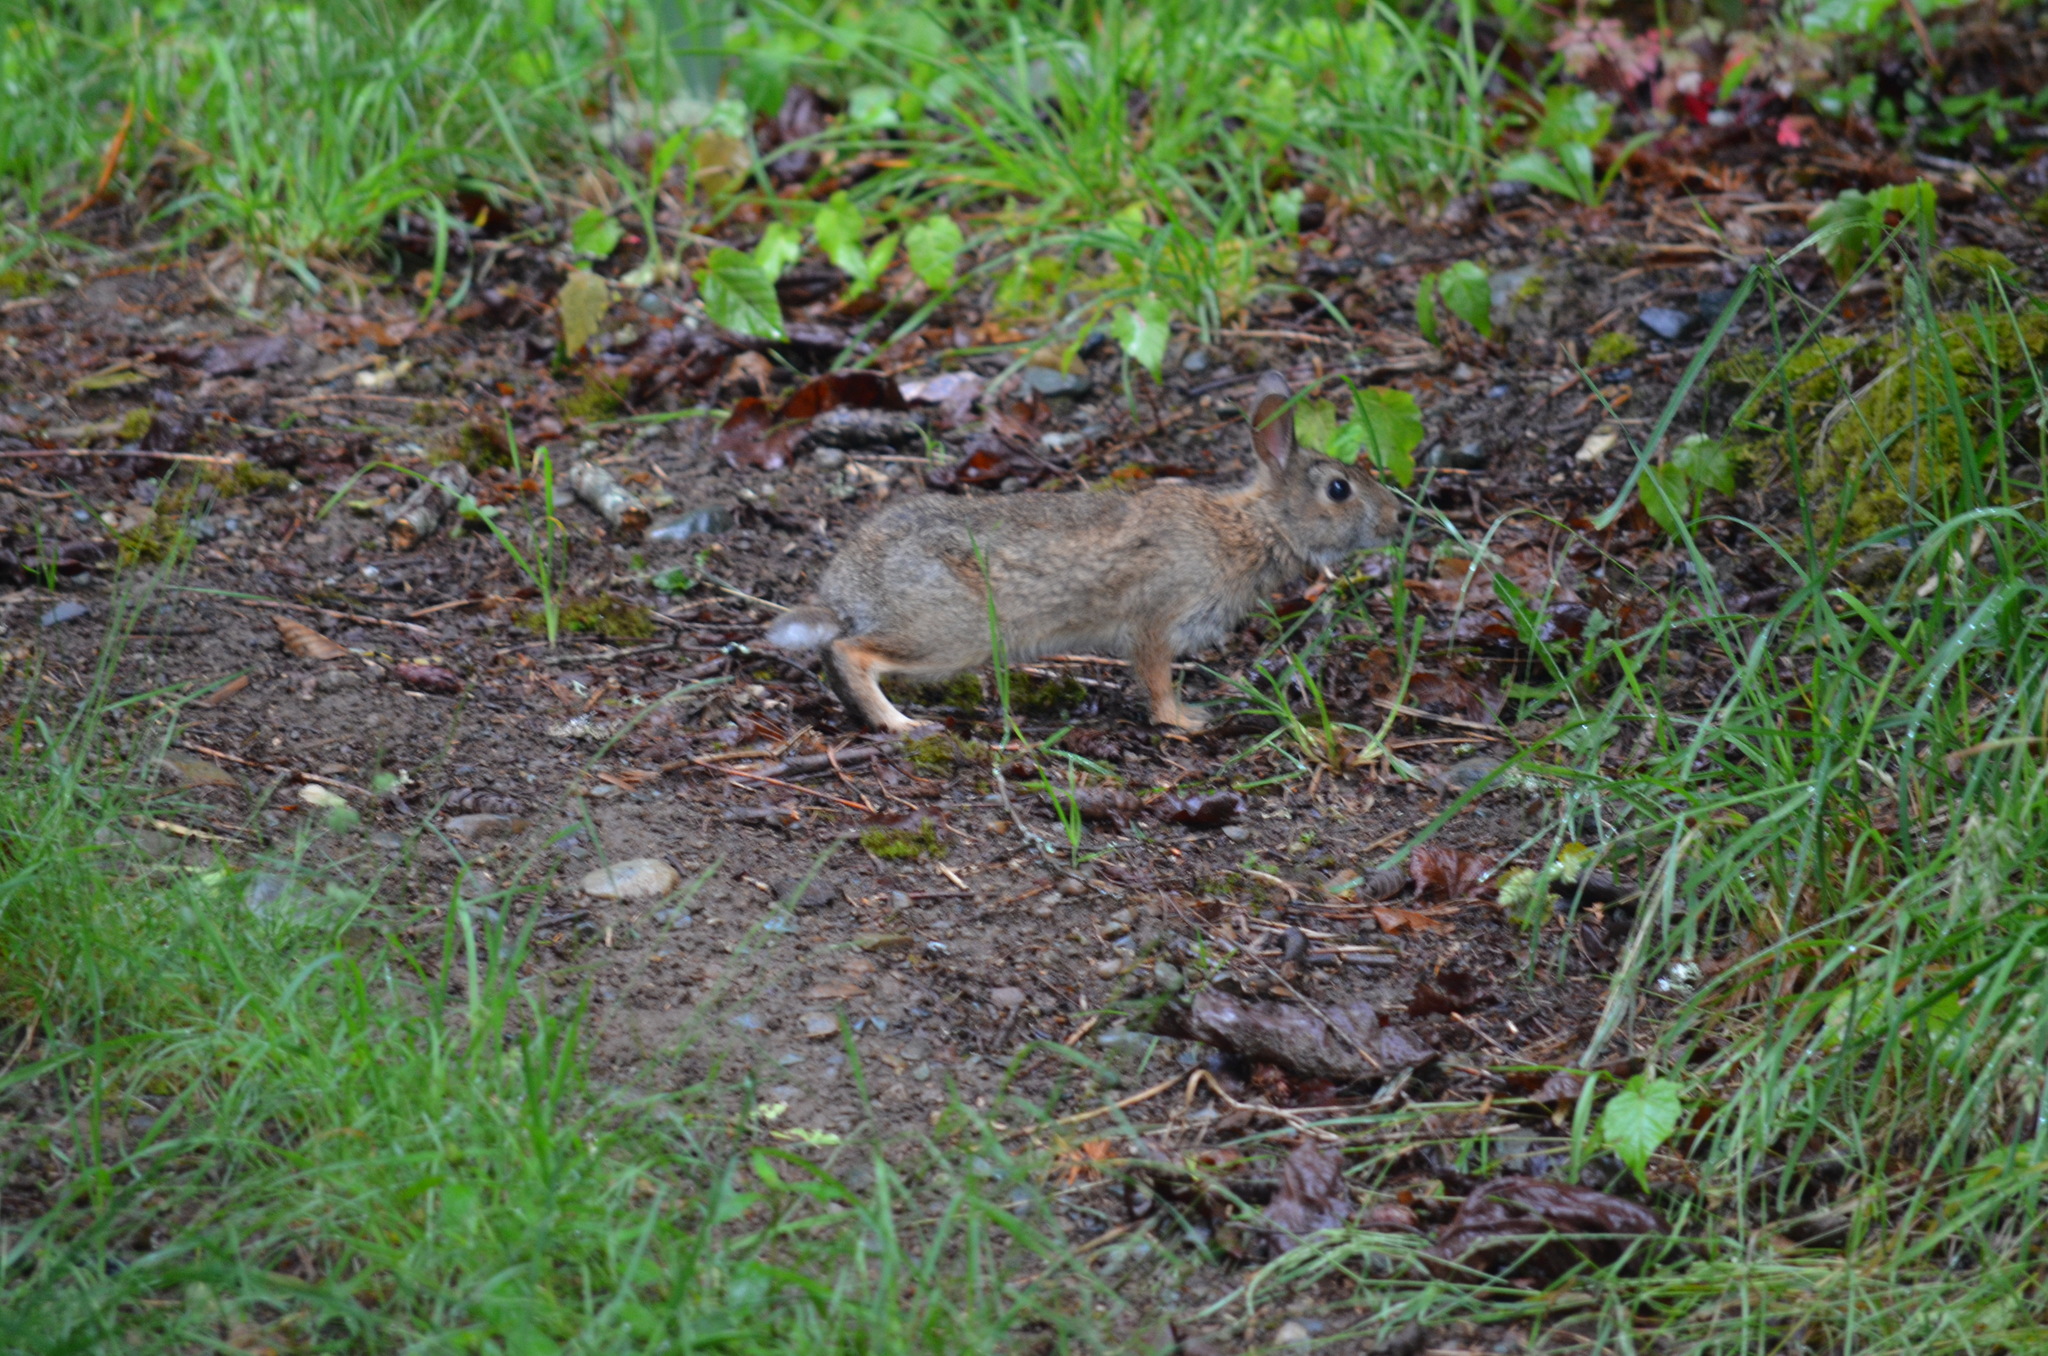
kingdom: Animalia
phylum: Chordata
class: Mammalia
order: Lagomorpha
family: Leporidae
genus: Sylvilagus
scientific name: Sylvilagus floridanus
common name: Eastern cottontail
